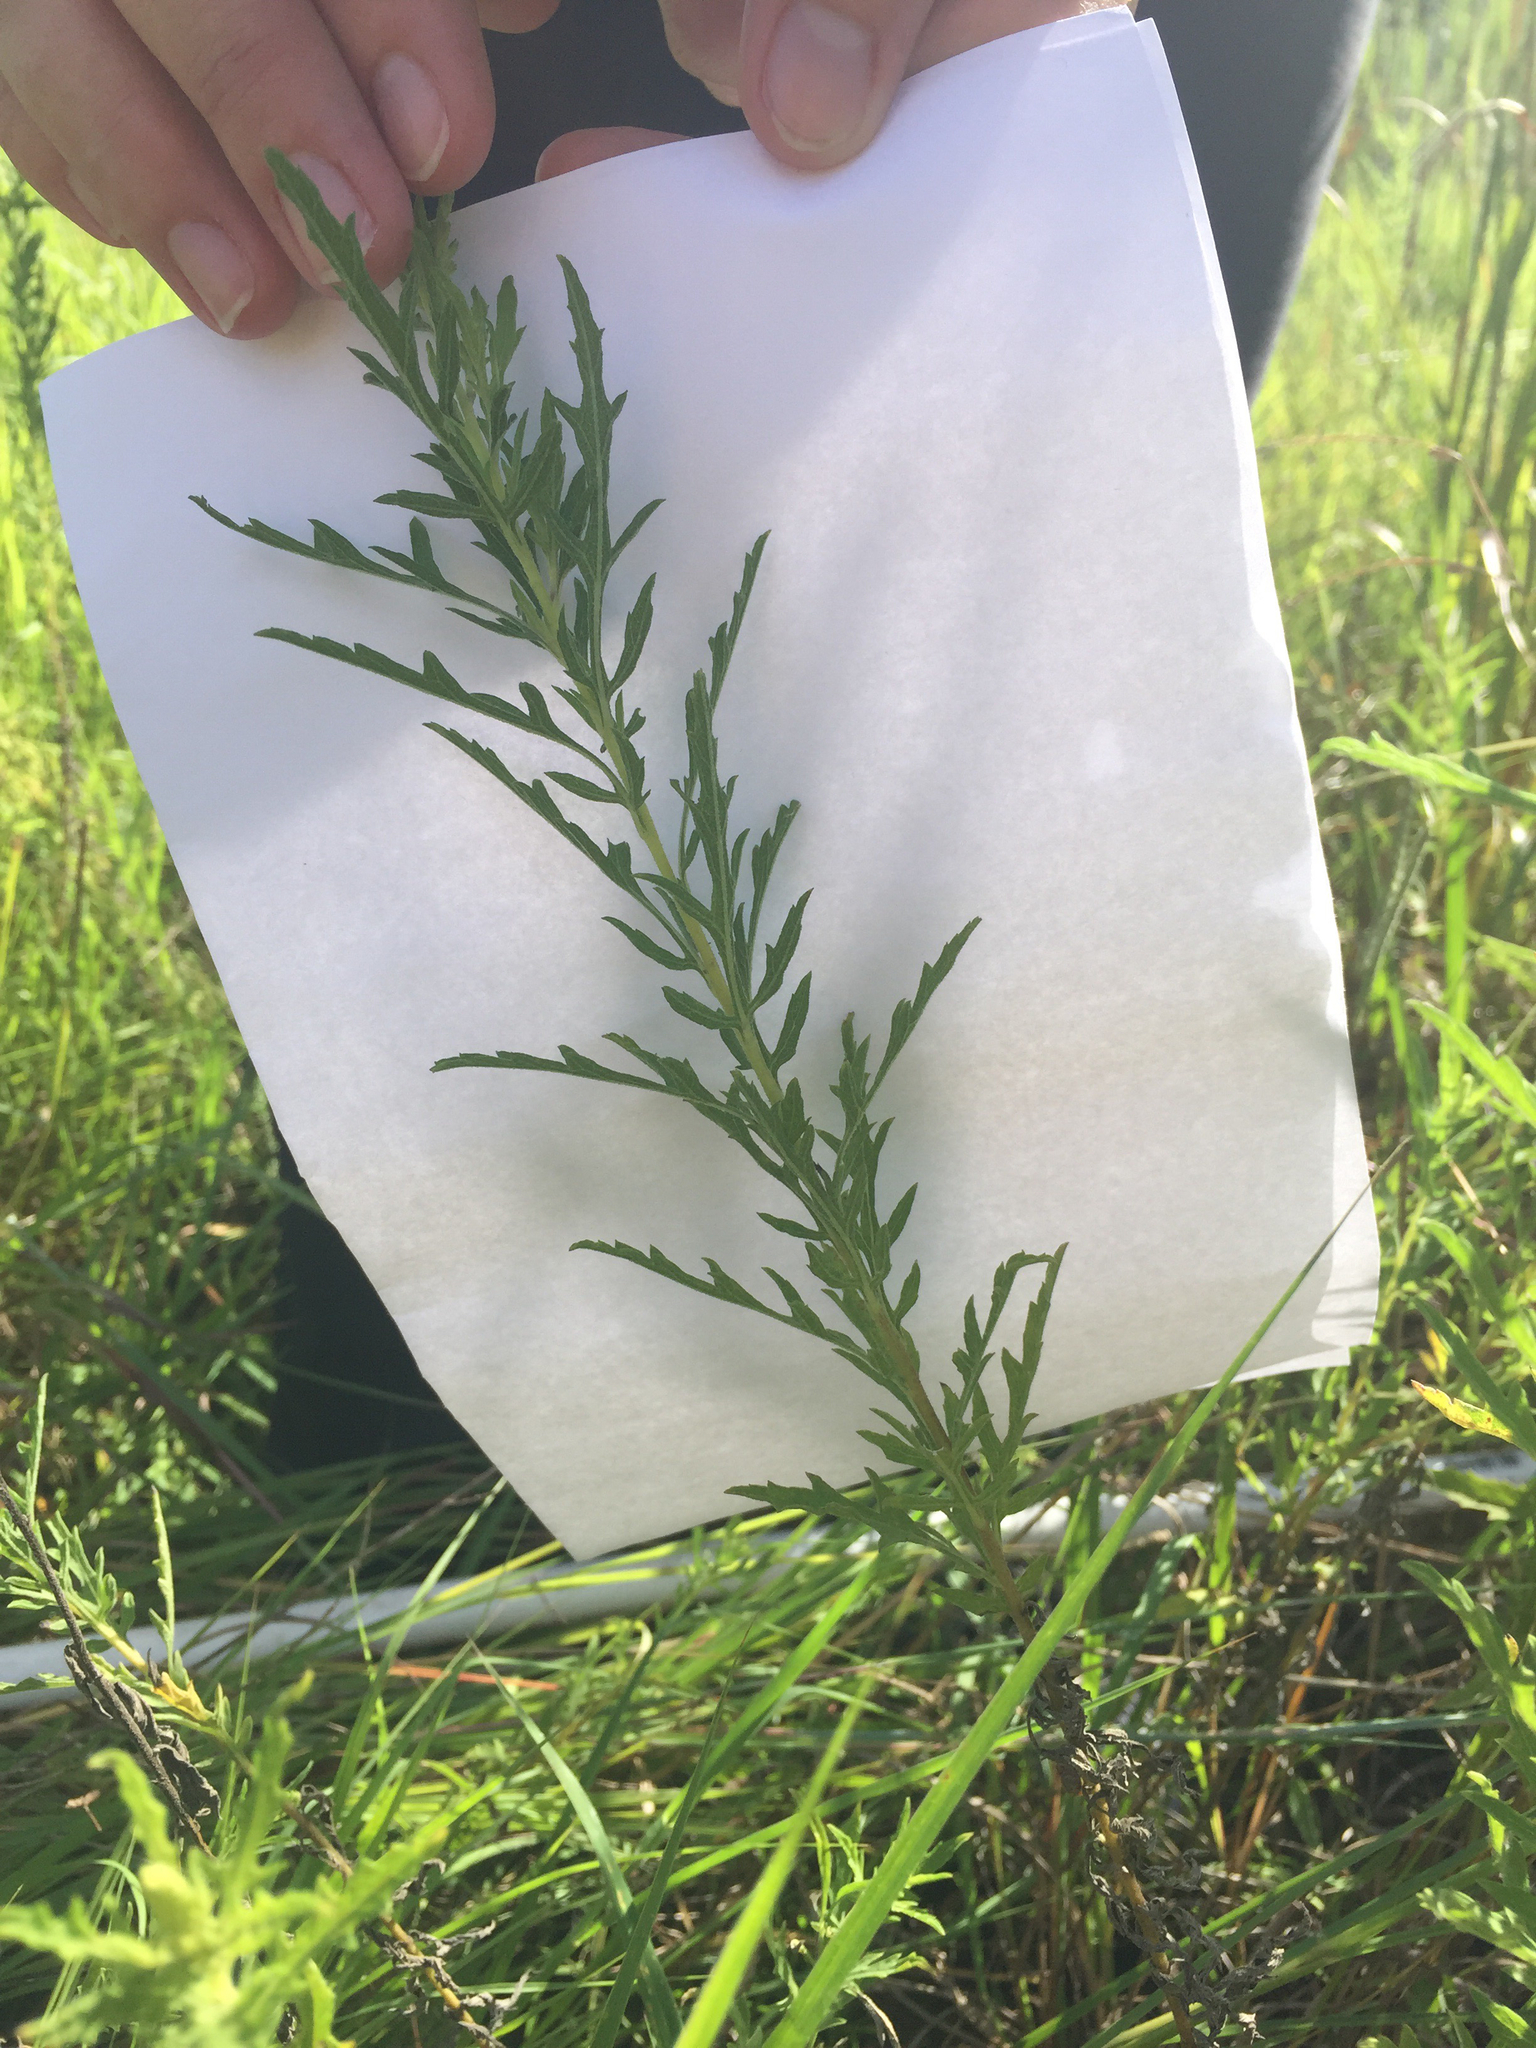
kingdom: Plantae
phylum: Tracheophyta
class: Magnoliopsida
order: Asterales
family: Asteraceae
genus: Ambrosia
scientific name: Ambrosia psilostachya
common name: Perennial ragweed
